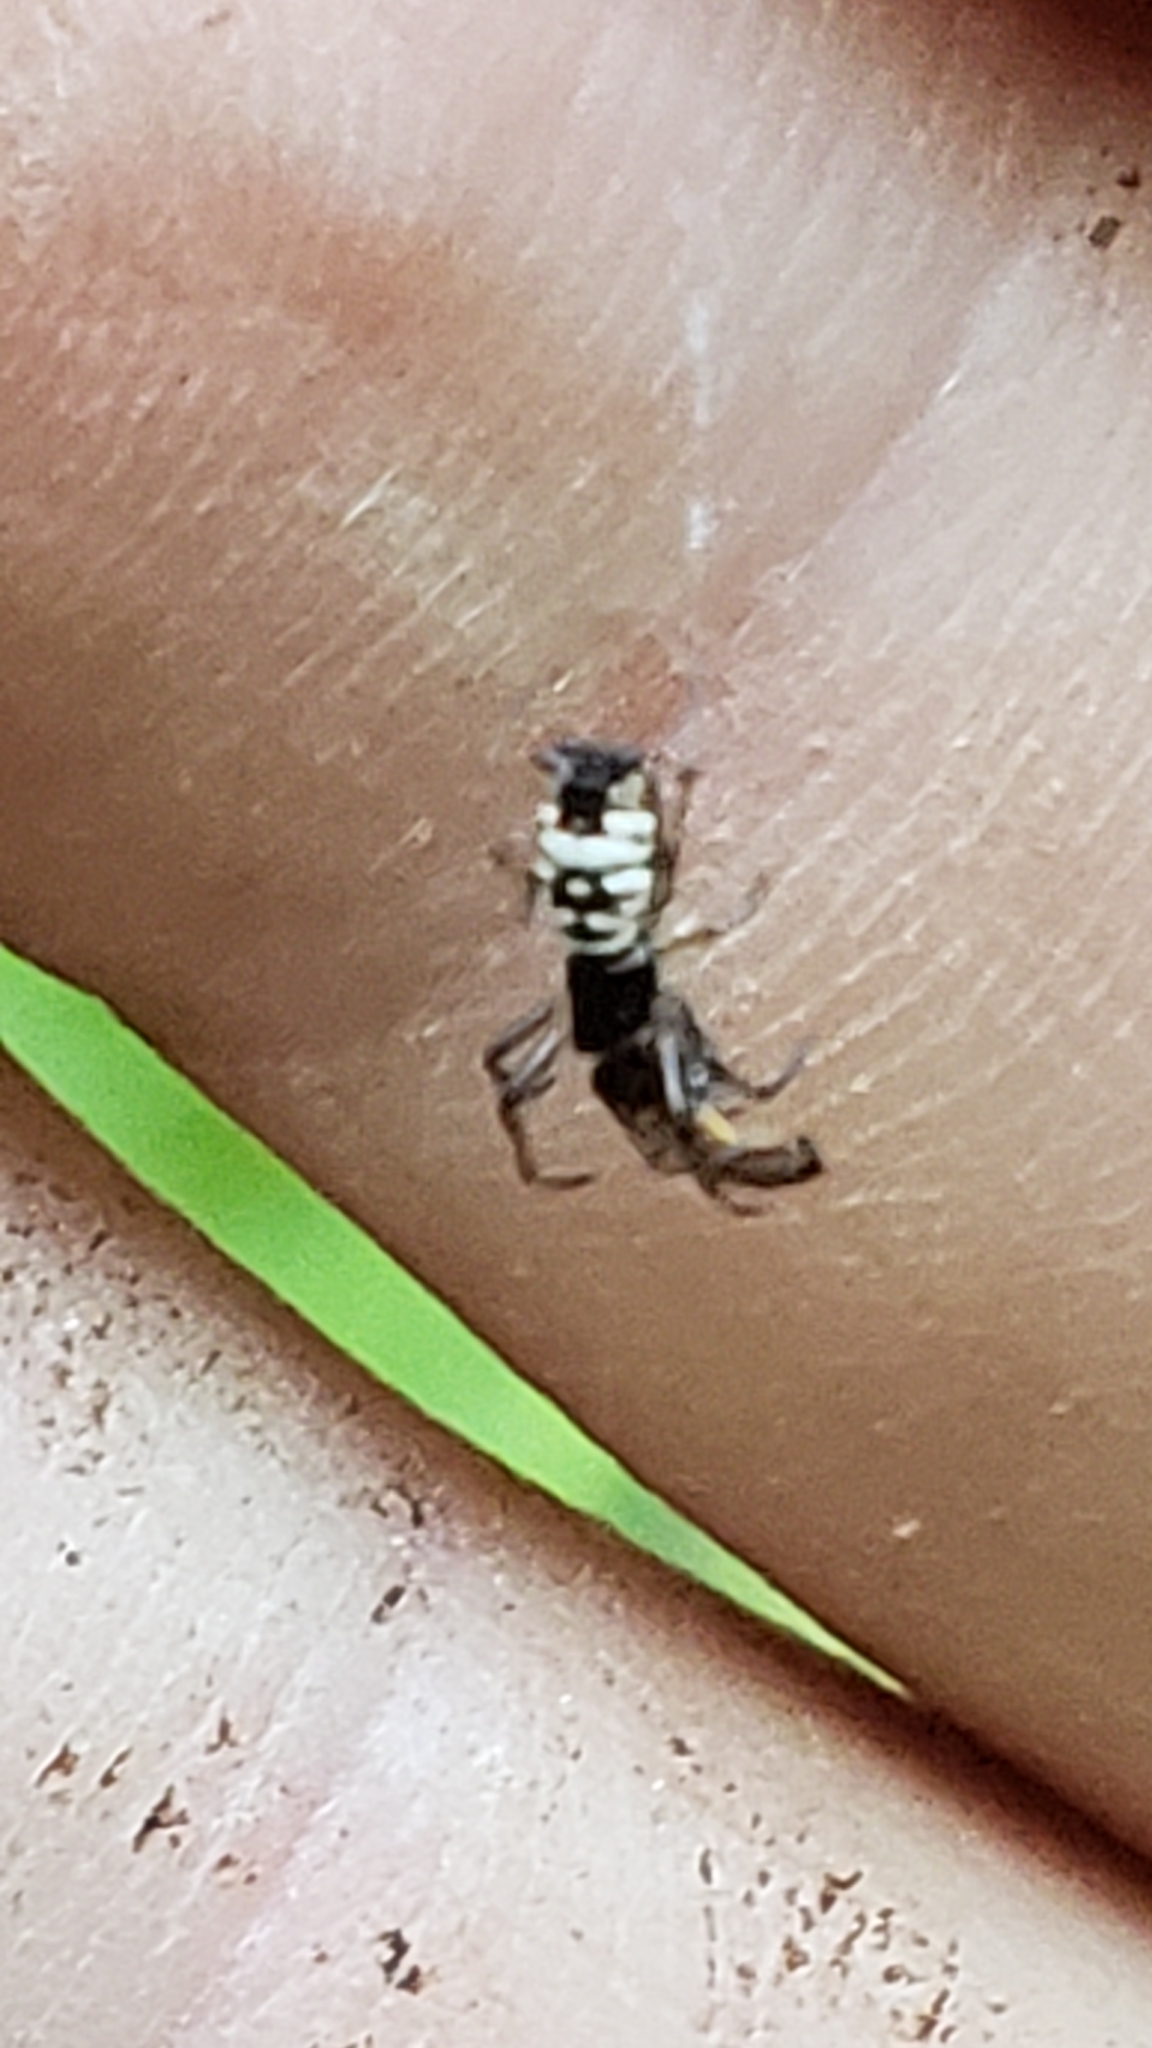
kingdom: Animalia
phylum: Arthropoda
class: Arachnida
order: Araneae
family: Araneidae
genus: Micrathena
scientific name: Micrathena mitrata
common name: Orb weavers
